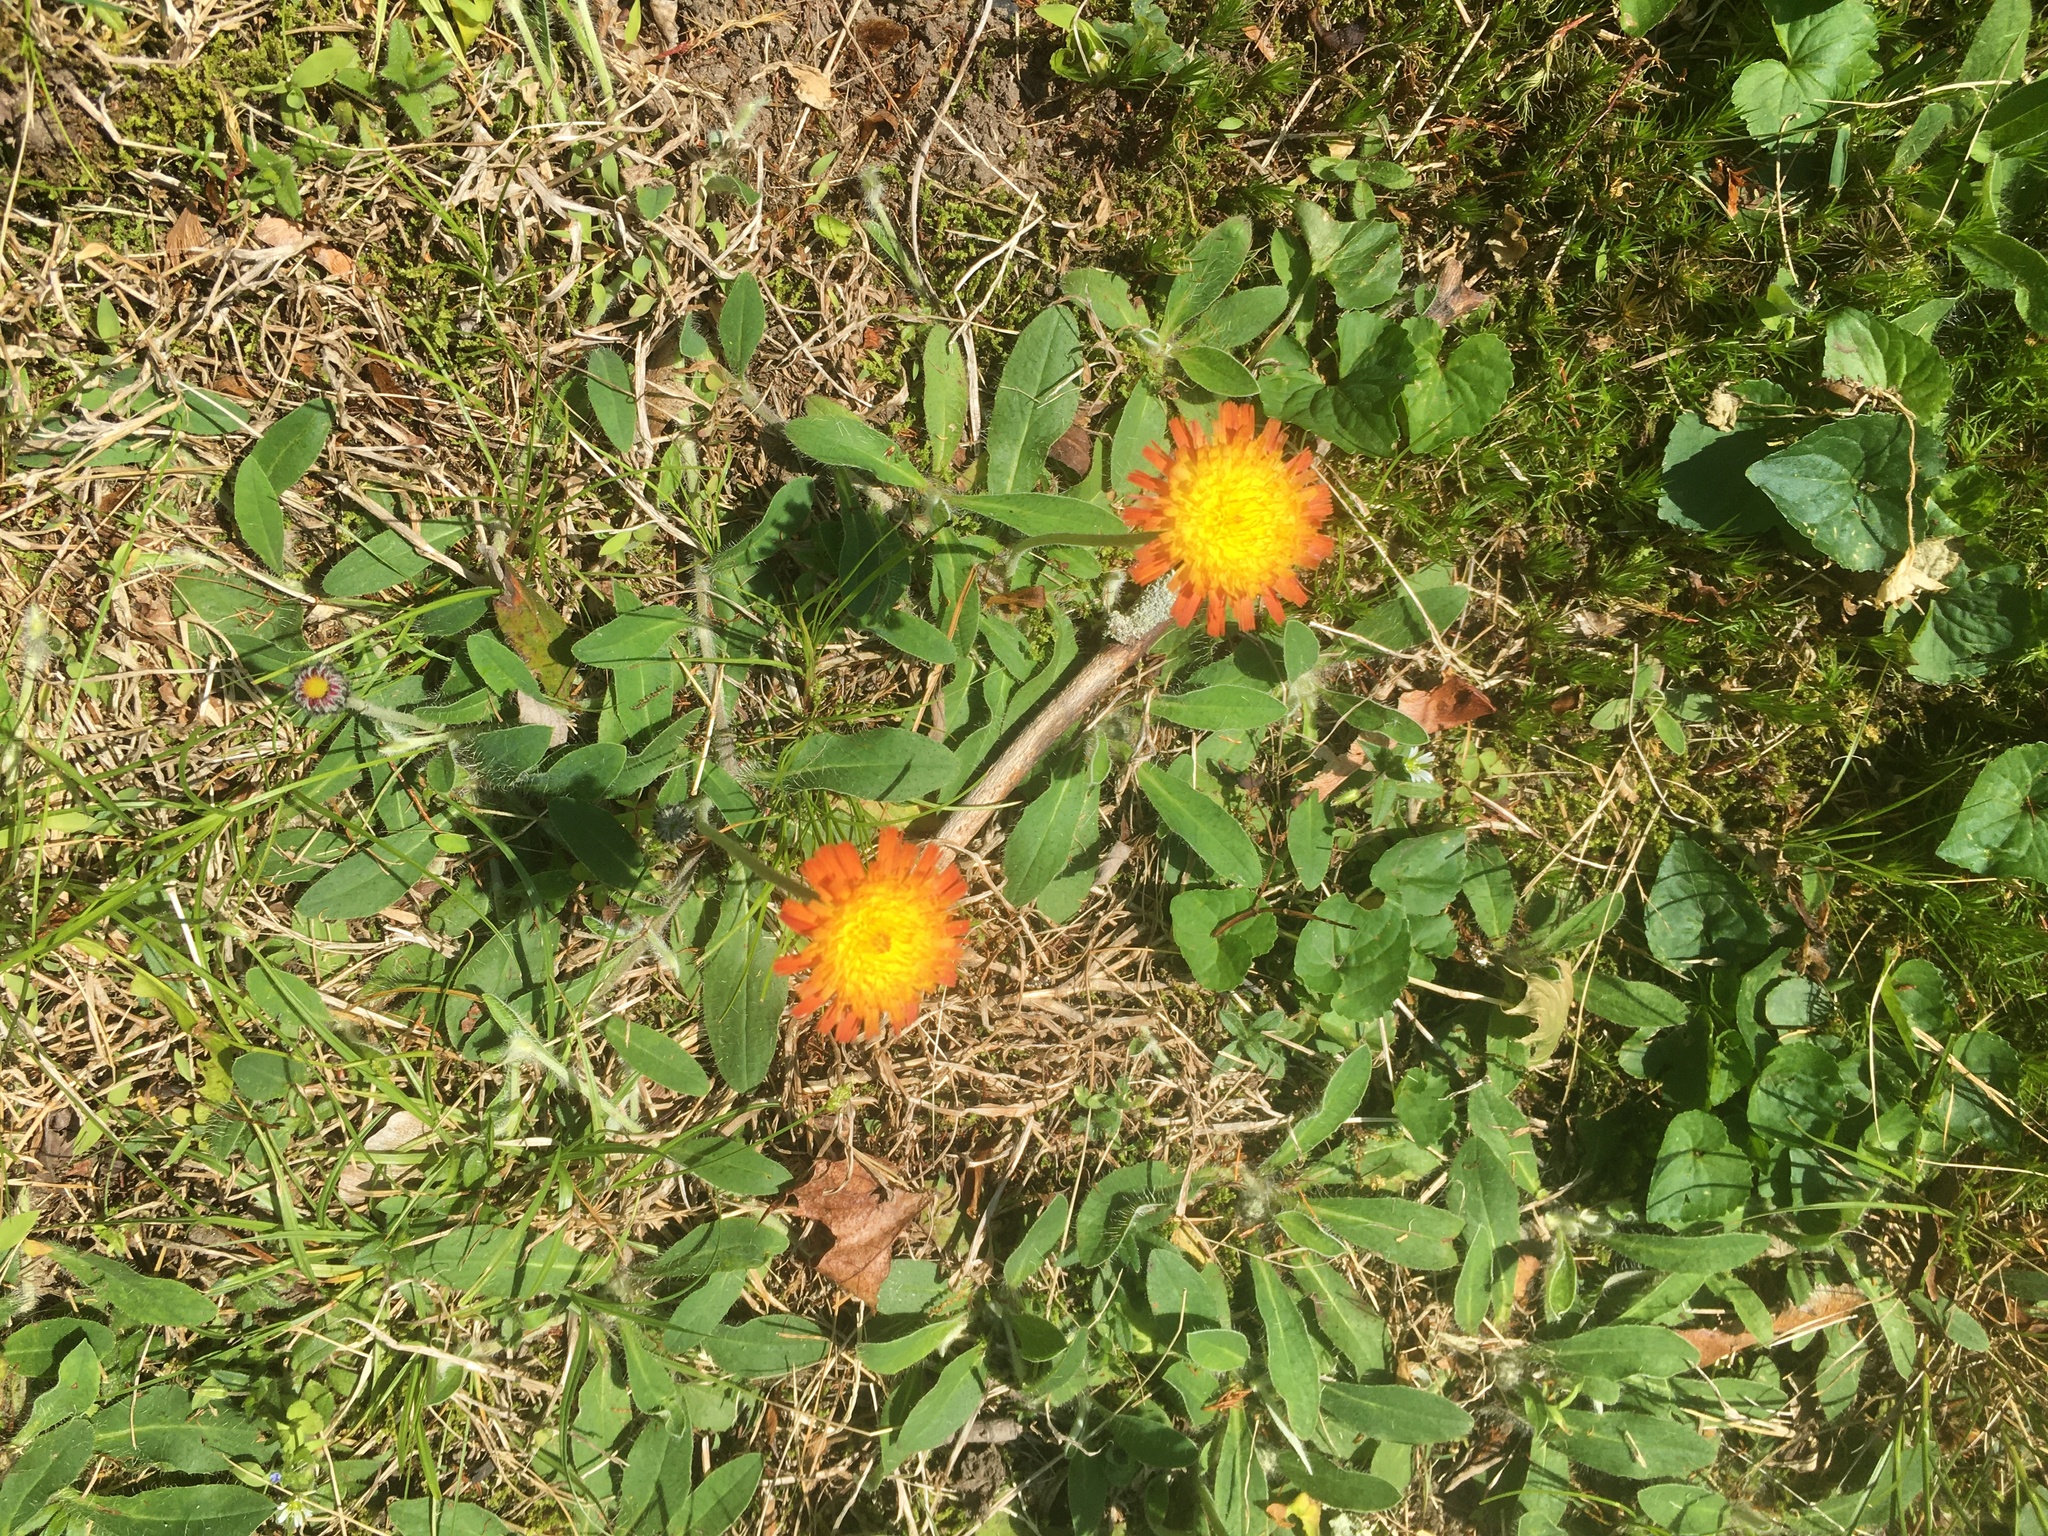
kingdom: Plantae
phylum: Tracheophyta
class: Magnoliopsida
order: Asterales
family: Asteraceae
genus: Pilosella
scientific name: Pilosella aurantiaca
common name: Fox-and-cubs
